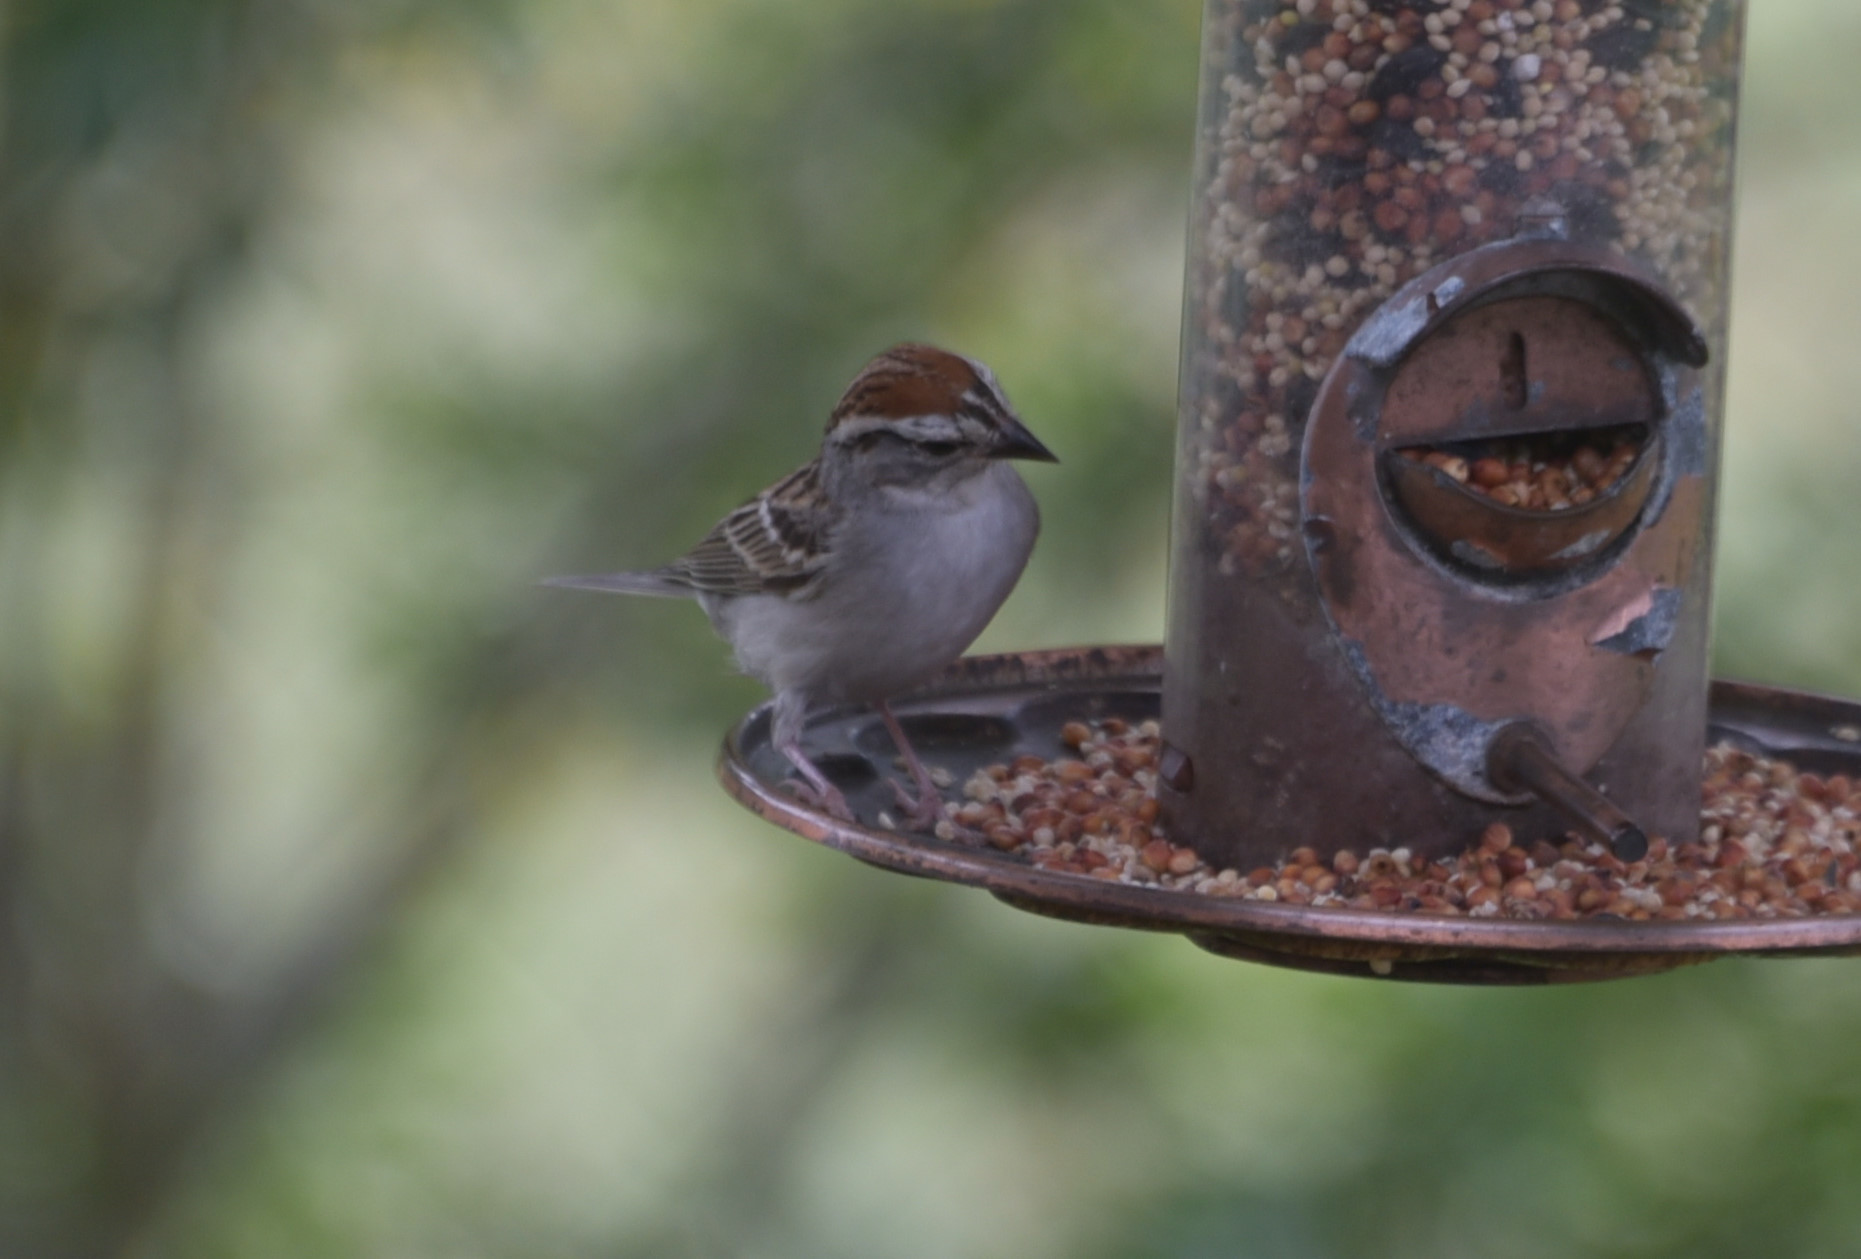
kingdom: Animalia
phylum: Chordata
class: Aves
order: Passeriformes
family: Passerellidae
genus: Spizella
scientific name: Spizella passerina
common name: Chipping sparrow
